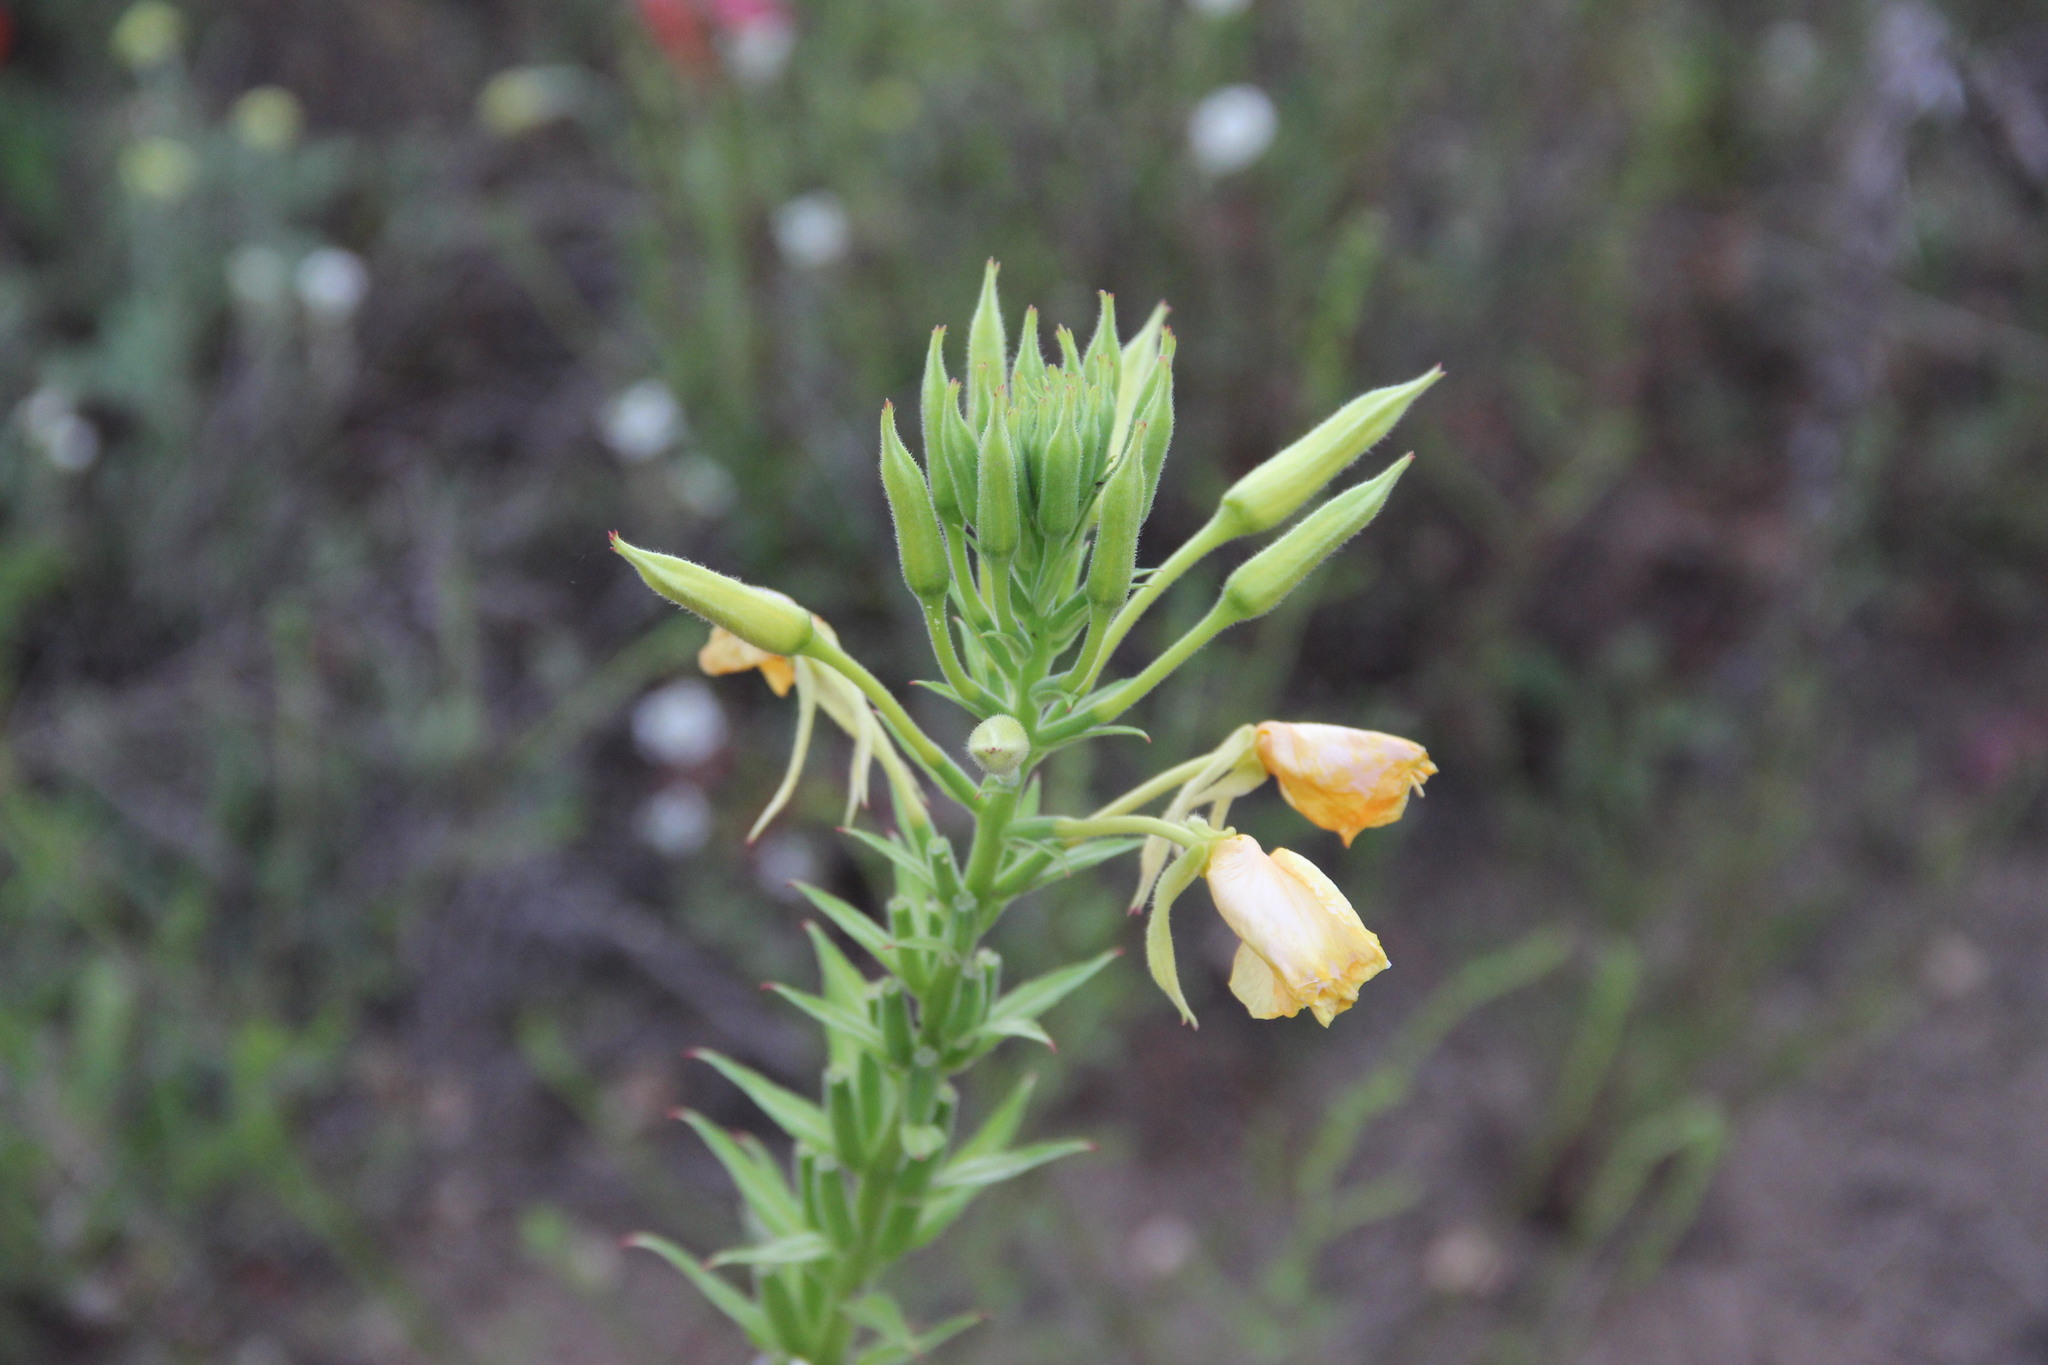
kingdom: Plantae
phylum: Tracheophyta
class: Magnoliopsida
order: Myrtales
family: Onagraceae
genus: Oenothera
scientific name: Oenothera biennis
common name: Common evening-primrose
